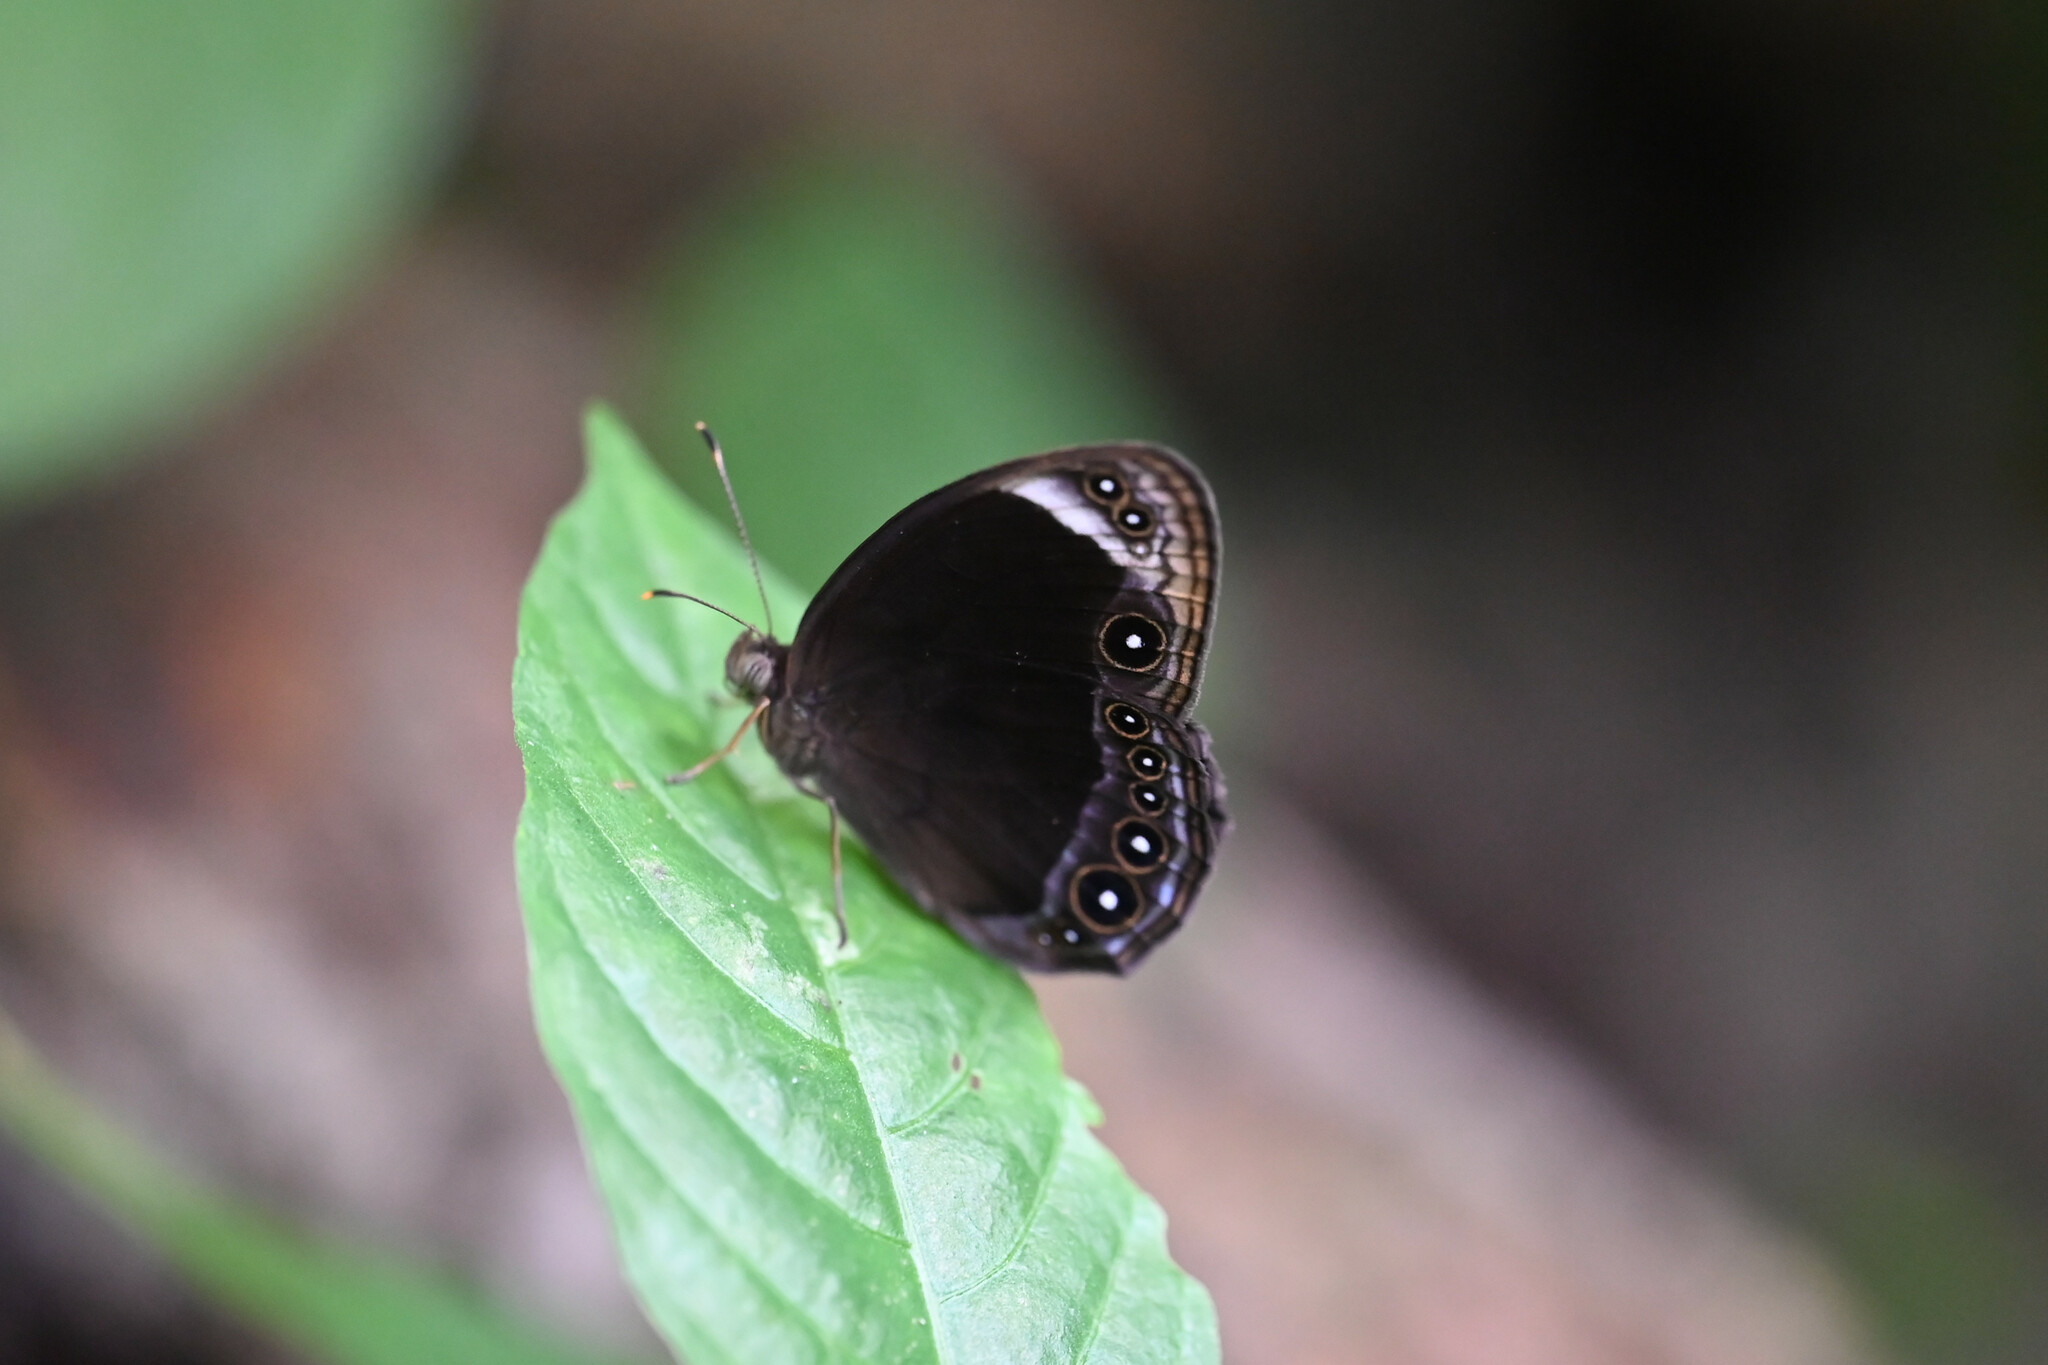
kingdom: Animalia
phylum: Arthropoda
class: Insecta
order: Lepidoptera
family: Nymphalidae
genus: Mycalesis
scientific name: Mycalesis anaxias
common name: White-bar bushbrown
